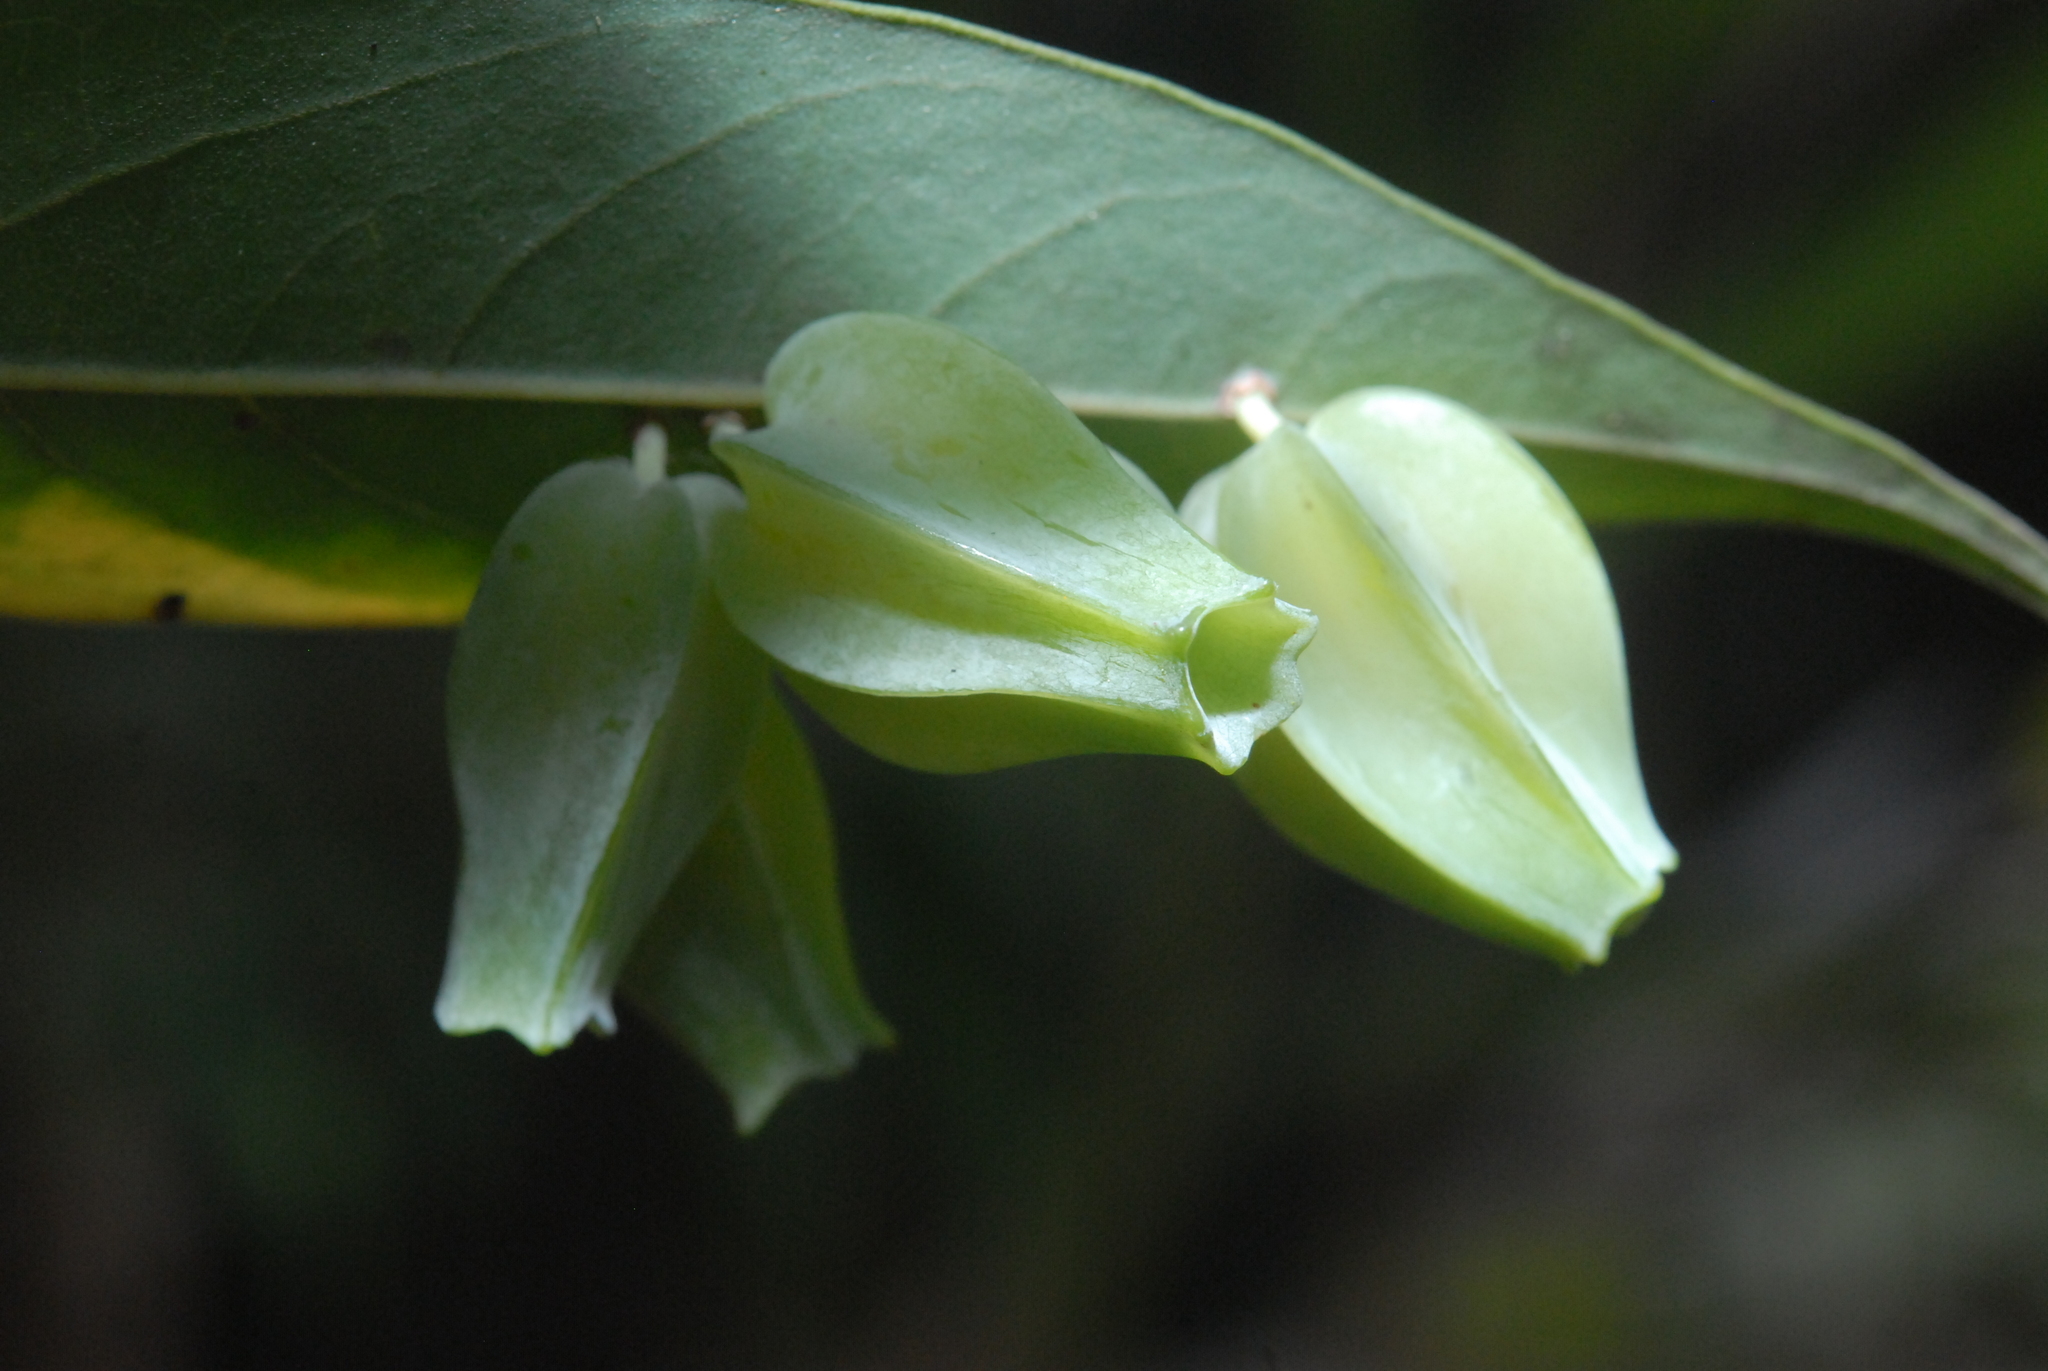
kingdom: Animalia
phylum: Arthropoda
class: Insecta
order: Diptera
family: Cecidomyiidae
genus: Daphnephila
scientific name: Daphnephila urnicola
